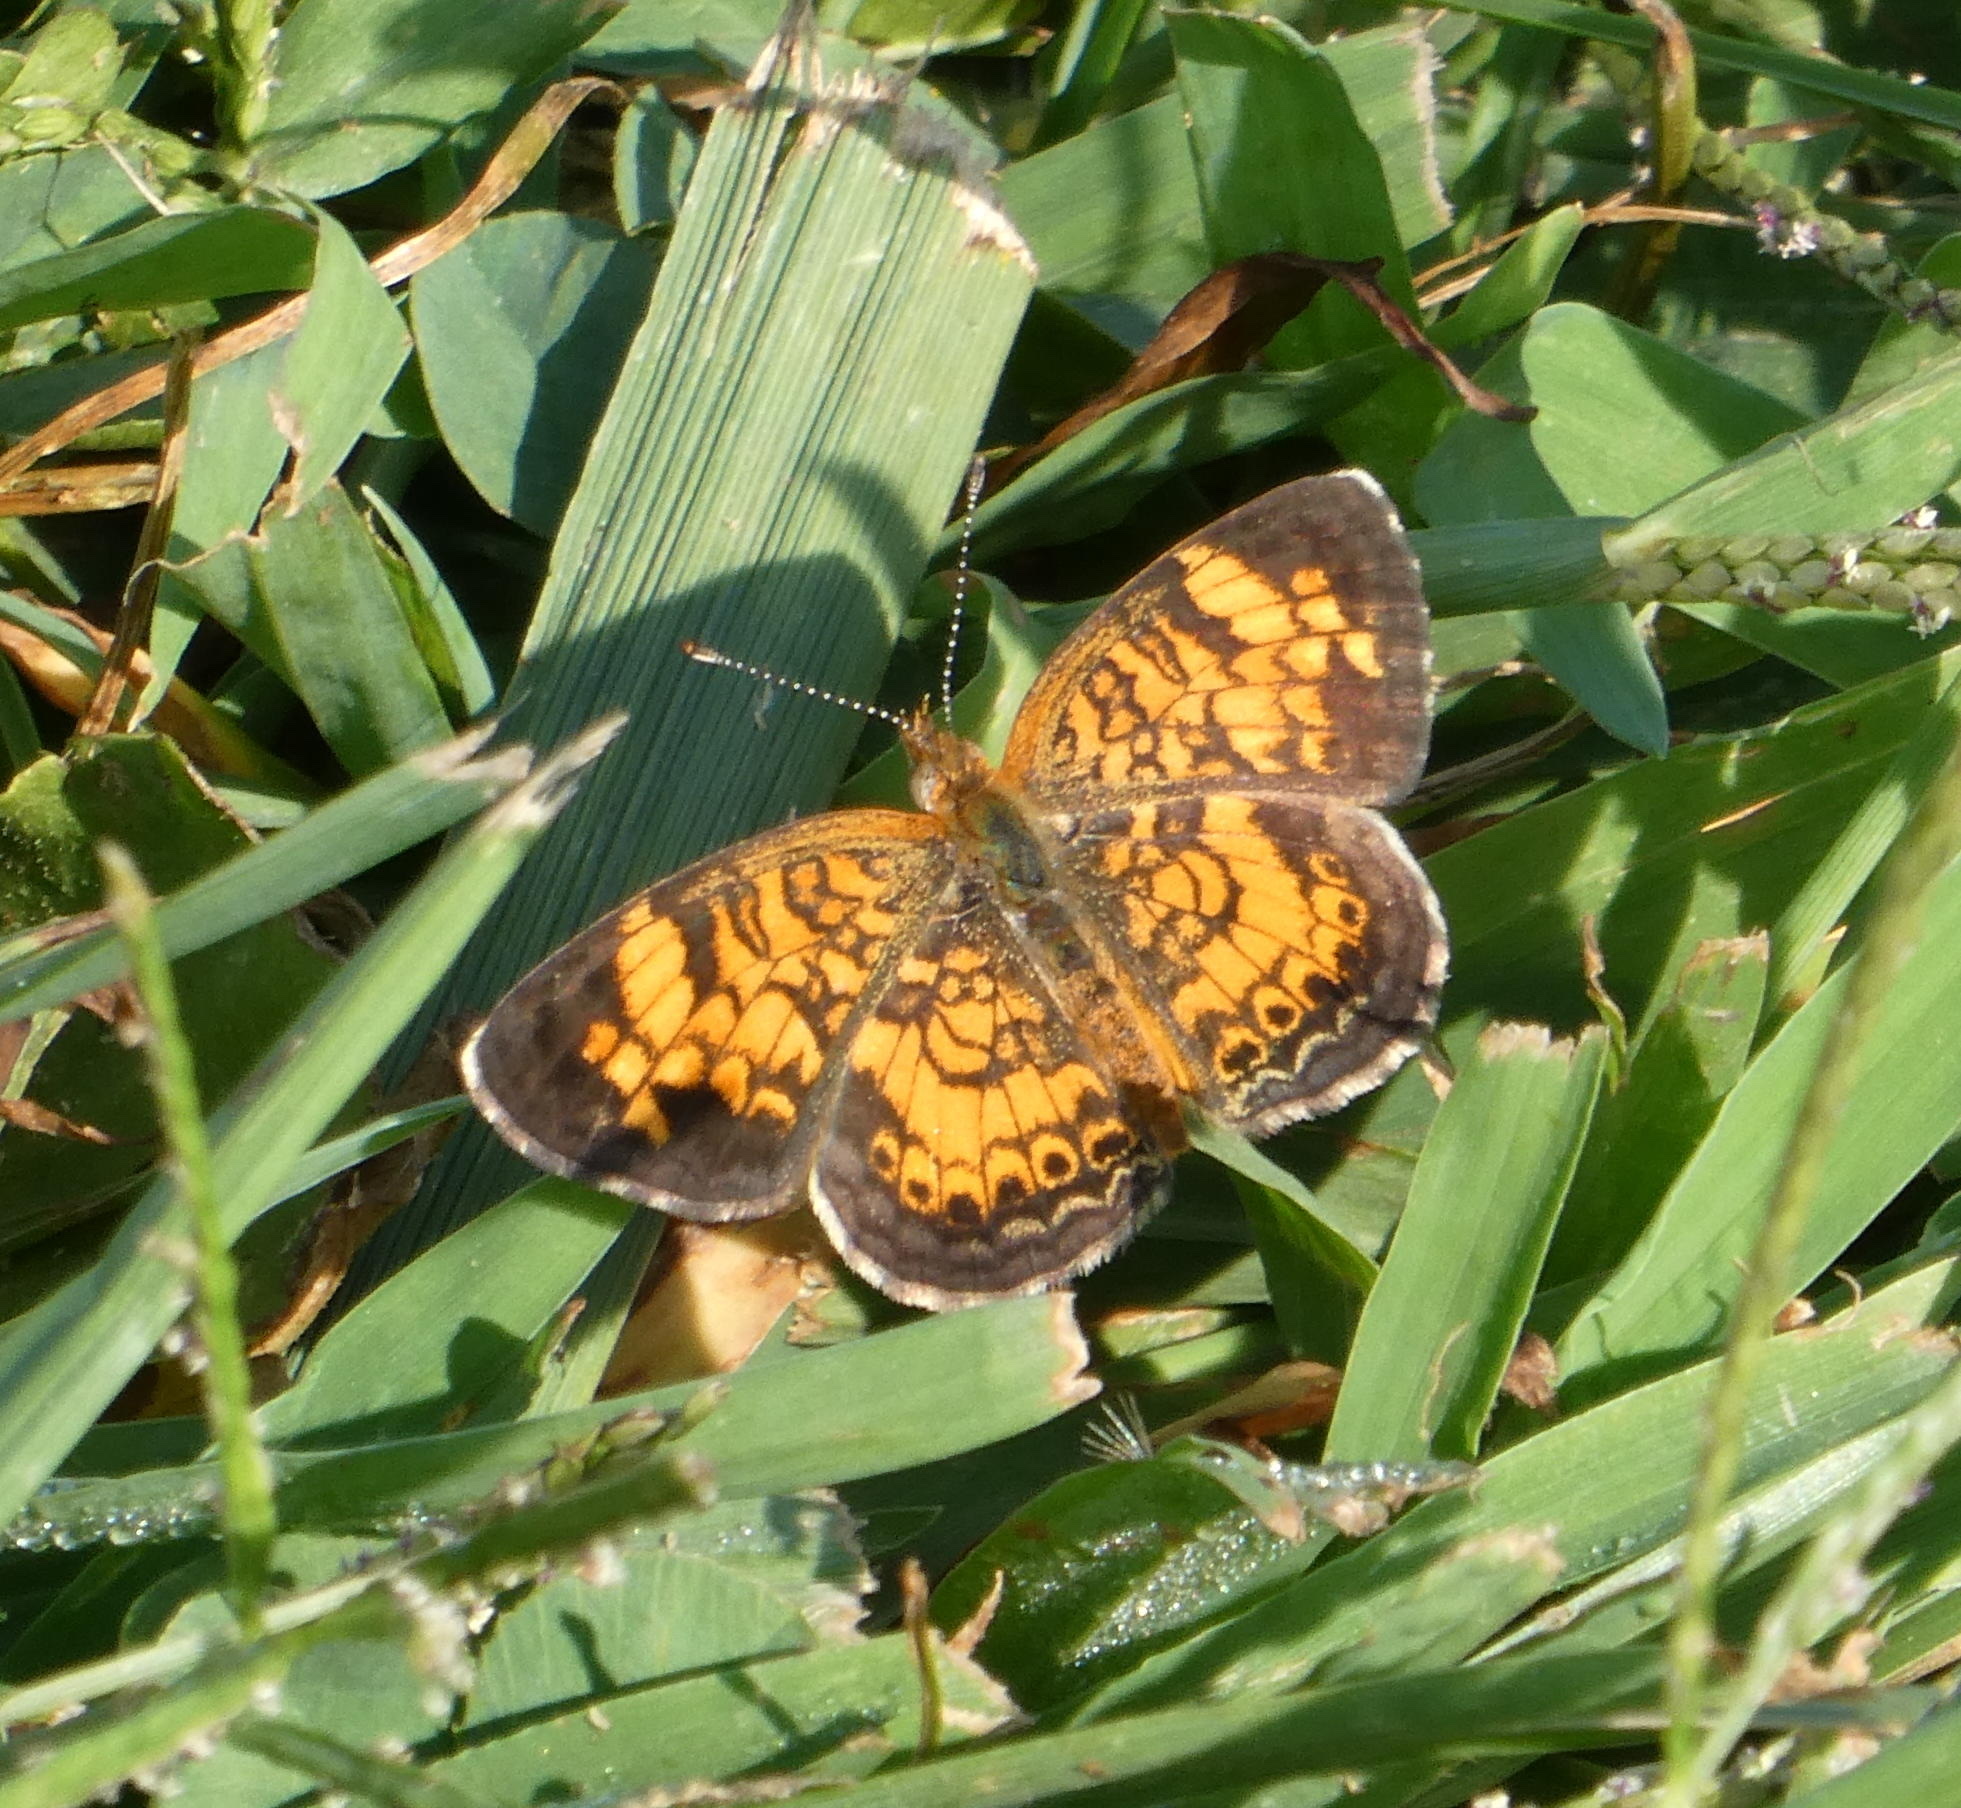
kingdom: Animalia
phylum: Arthropoda
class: Insecta
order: Lepidoptera
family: Nymphalidae
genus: Phyciodes
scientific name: Phyciodes tharos
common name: Pearl crescent
